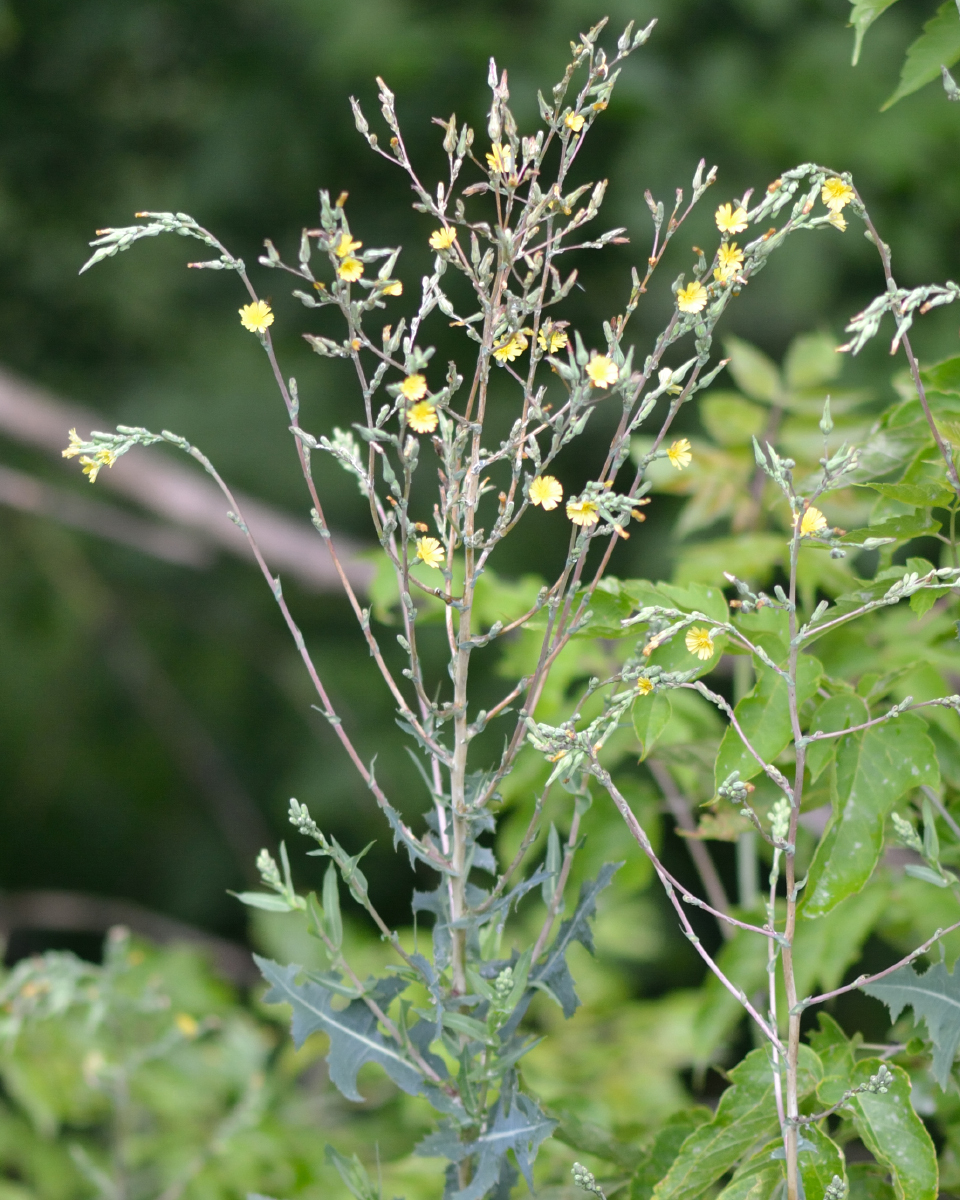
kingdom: Plantae
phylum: Tracheophyta
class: Magnoliopsida
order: Asterales
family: Asteraceae
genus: Lactuca
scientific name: Lactuca serriola
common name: Prickly lettuce
